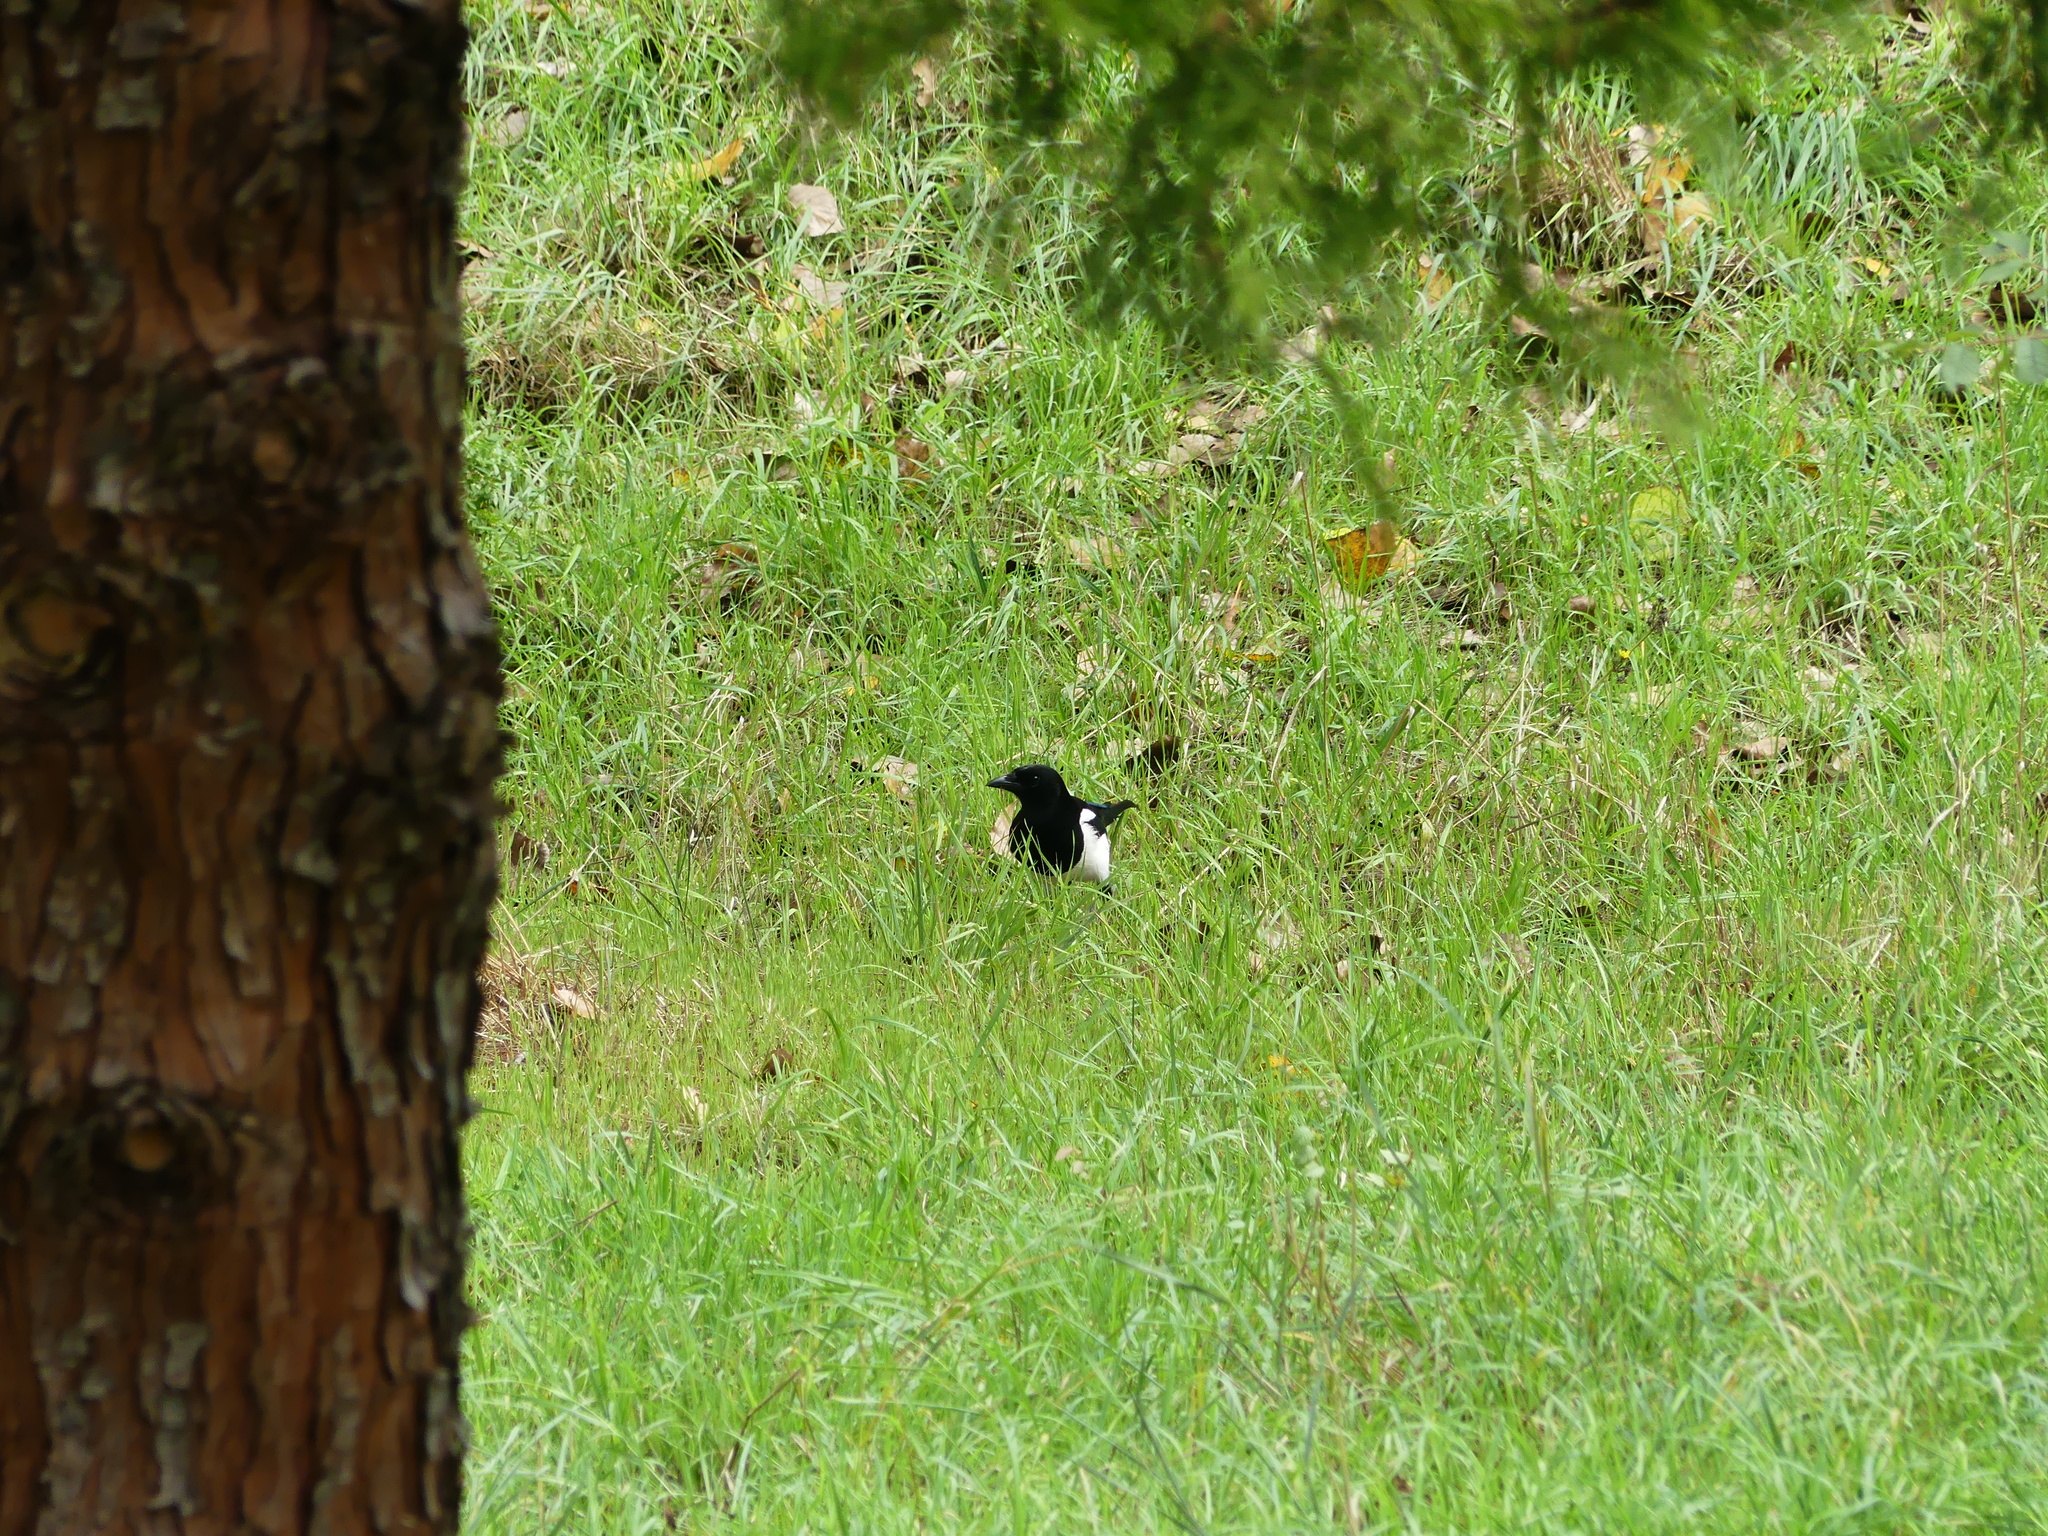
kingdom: Animalia
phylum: Chordata
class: Aves
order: Passeriformes
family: Corvidae
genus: Pica
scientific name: Pica pica
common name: Eurasian magpie
